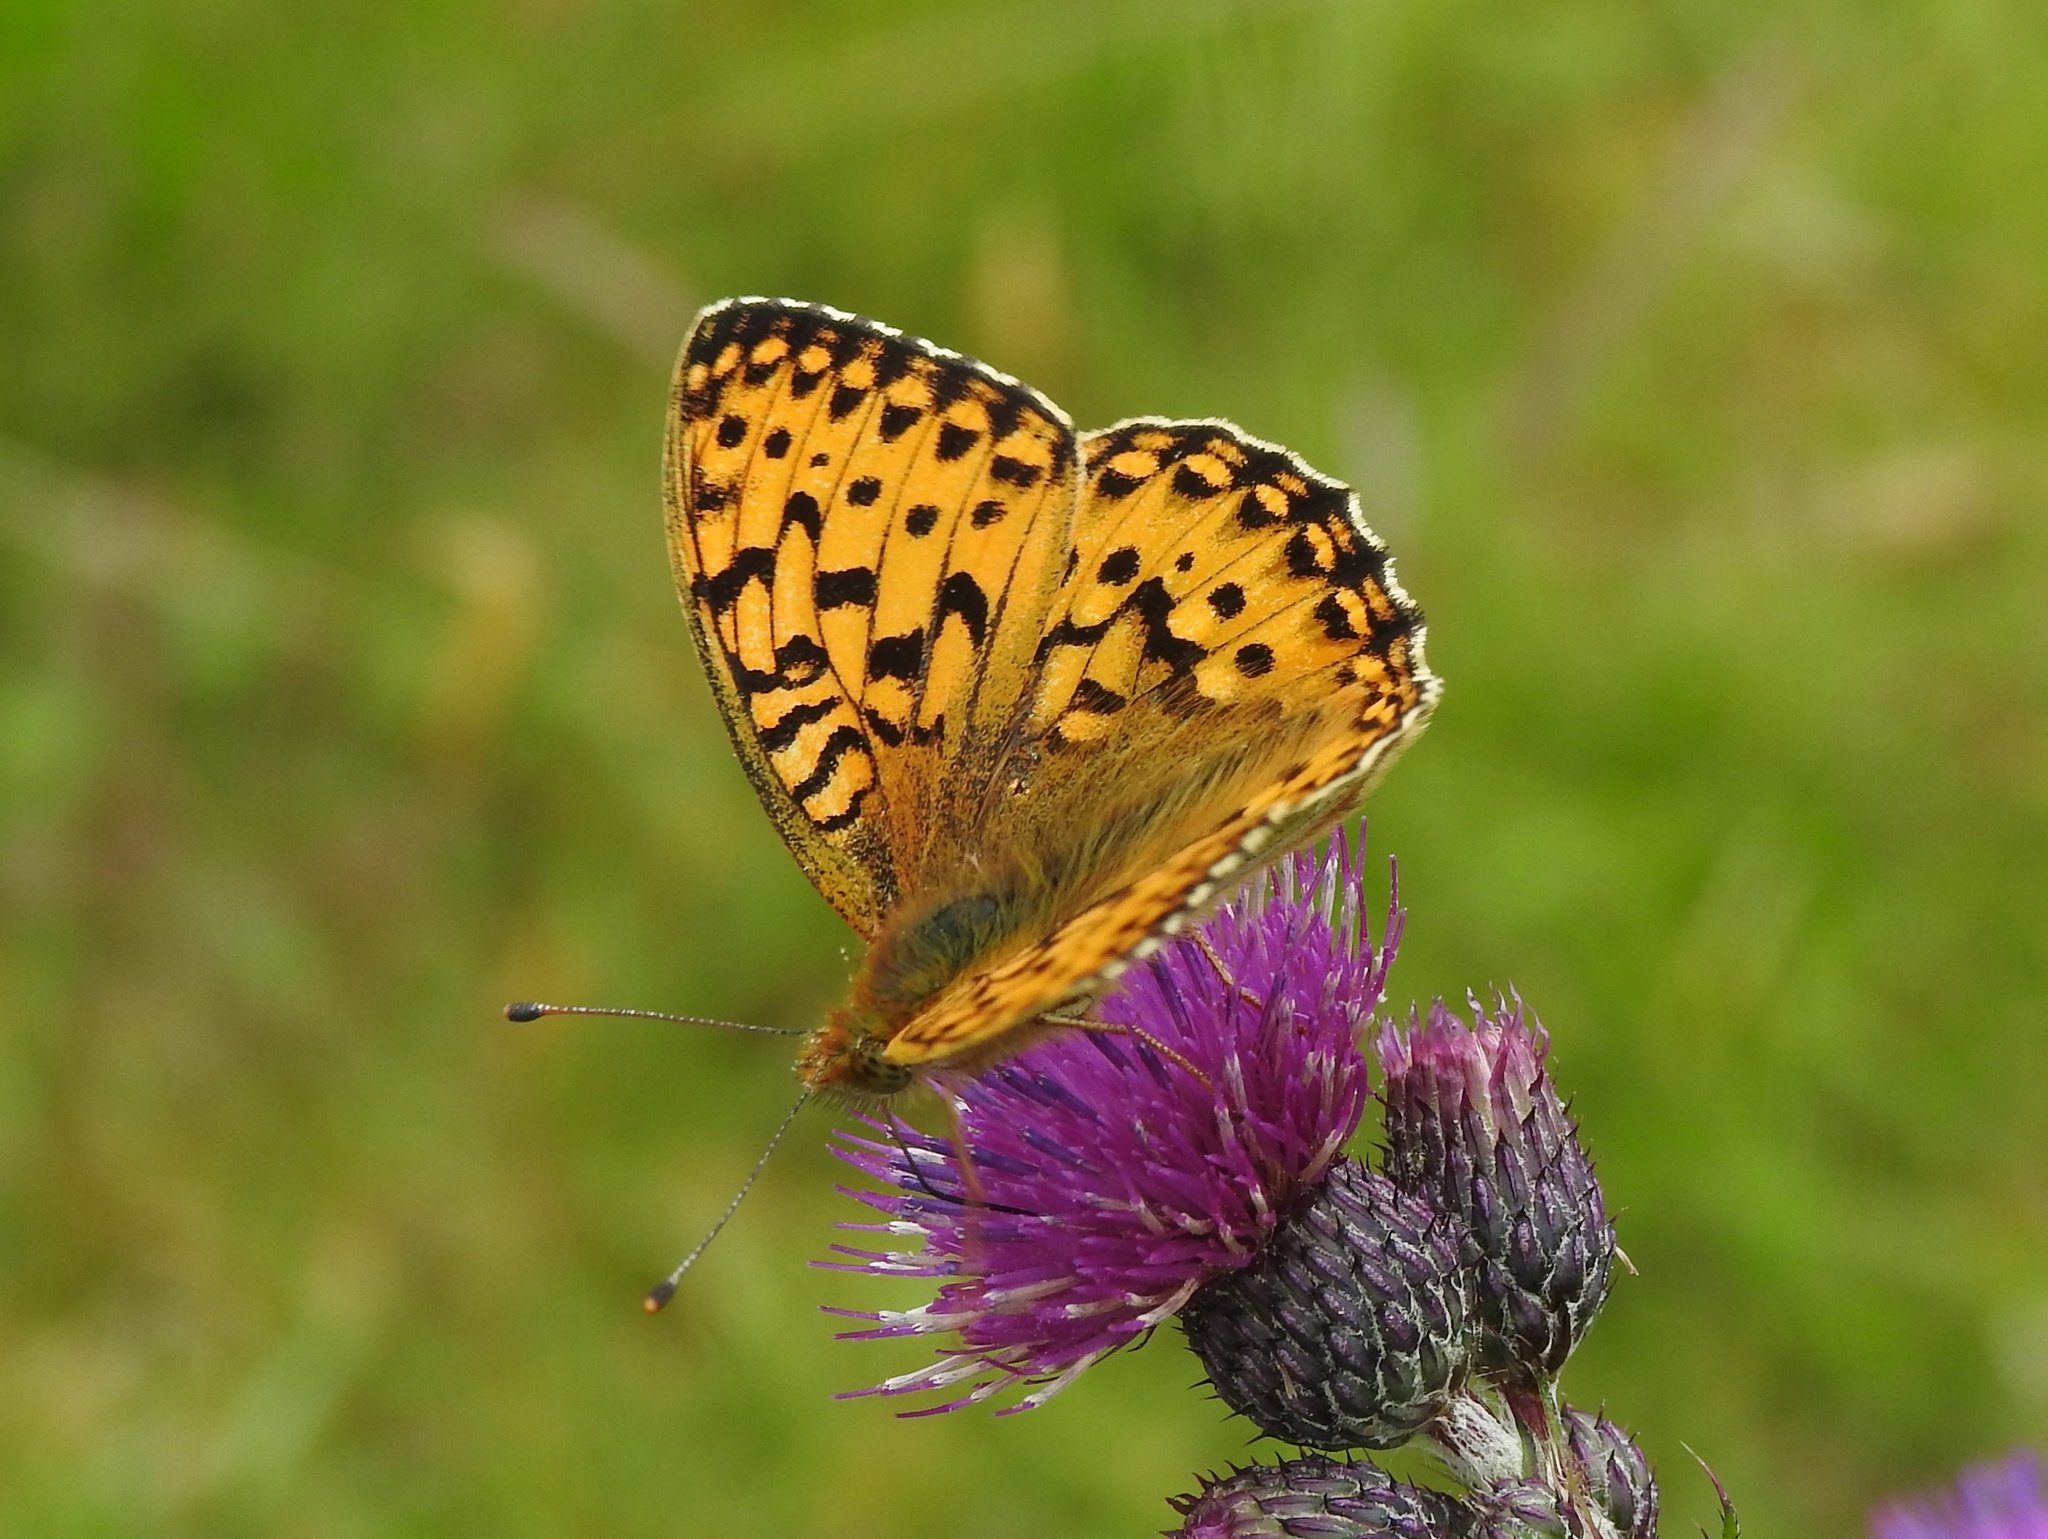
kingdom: Animalia
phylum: Arthropoda
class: Insecta
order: Lepidoptera
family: Nymphalidae
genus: Speyeria
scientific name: Speyeria aglaja
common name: Dark green fritillary
